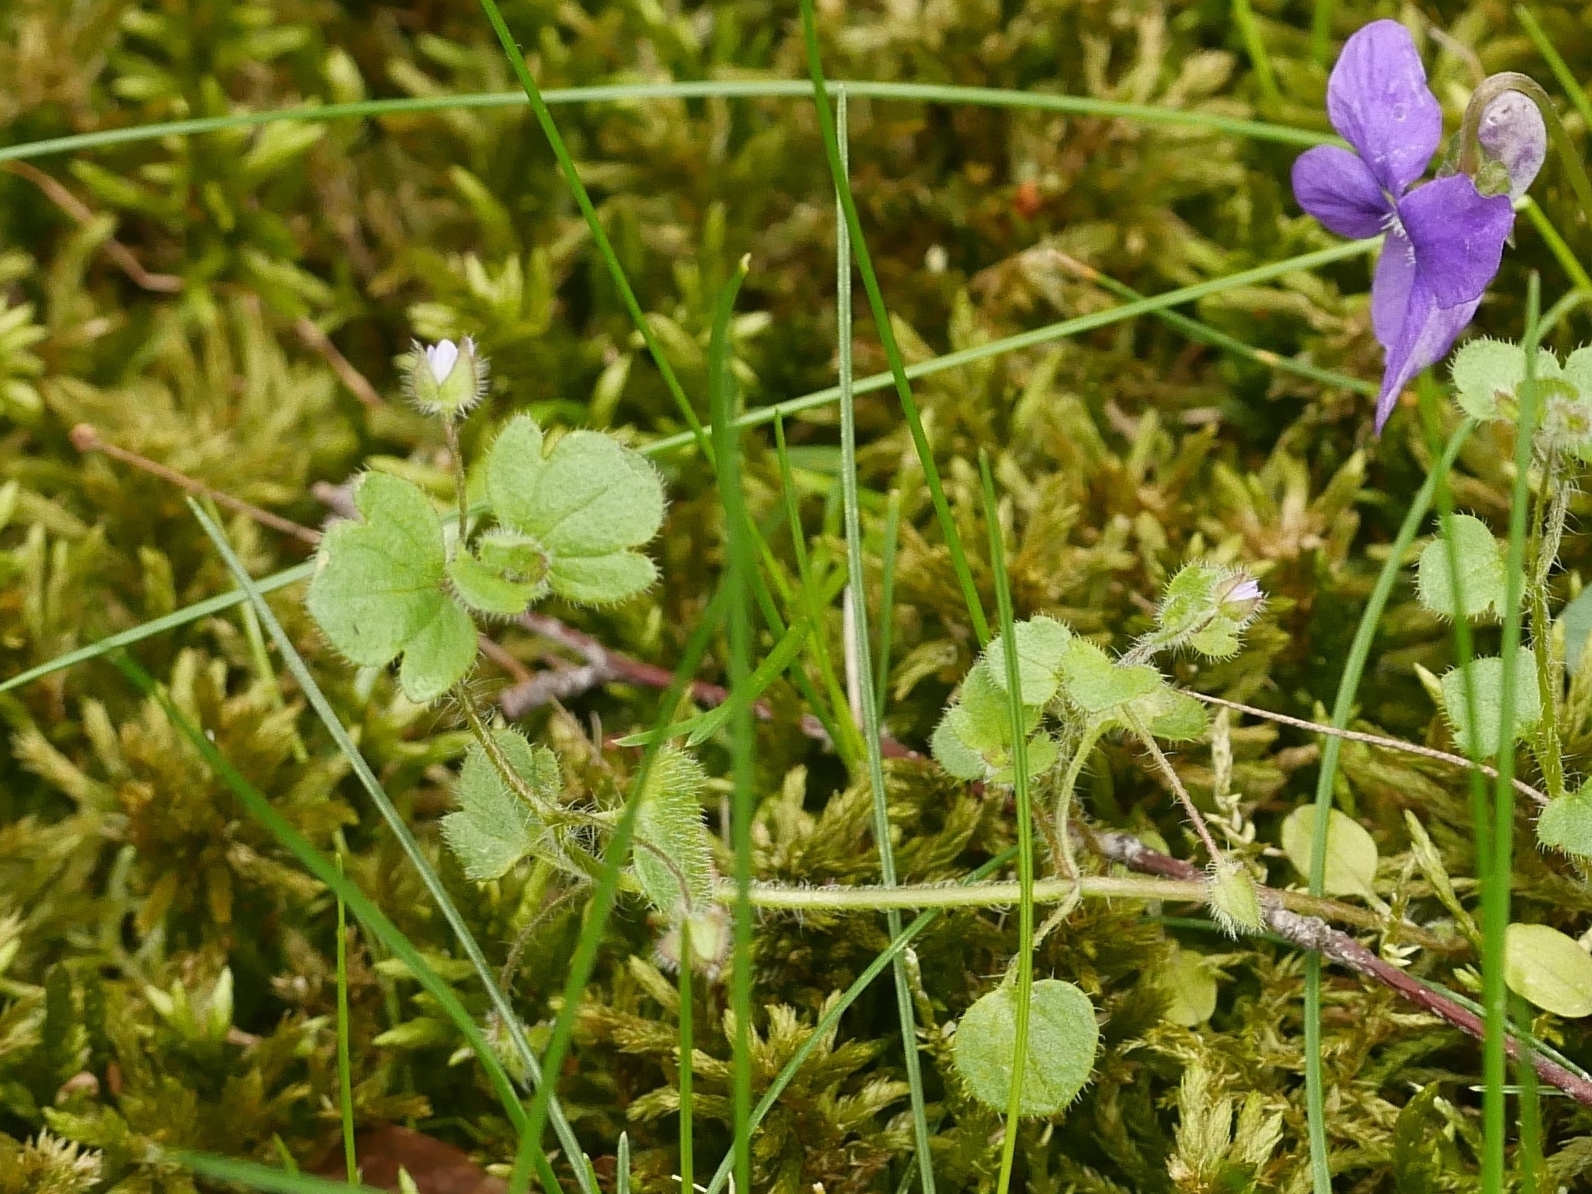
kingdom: Plantae
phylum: Tracheophyta
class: Magnoliopsida
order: Lamiales
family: Plantaginaceae
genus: Veronica
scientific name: Veronica sublobata
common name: False ivy-leaved speedwell
